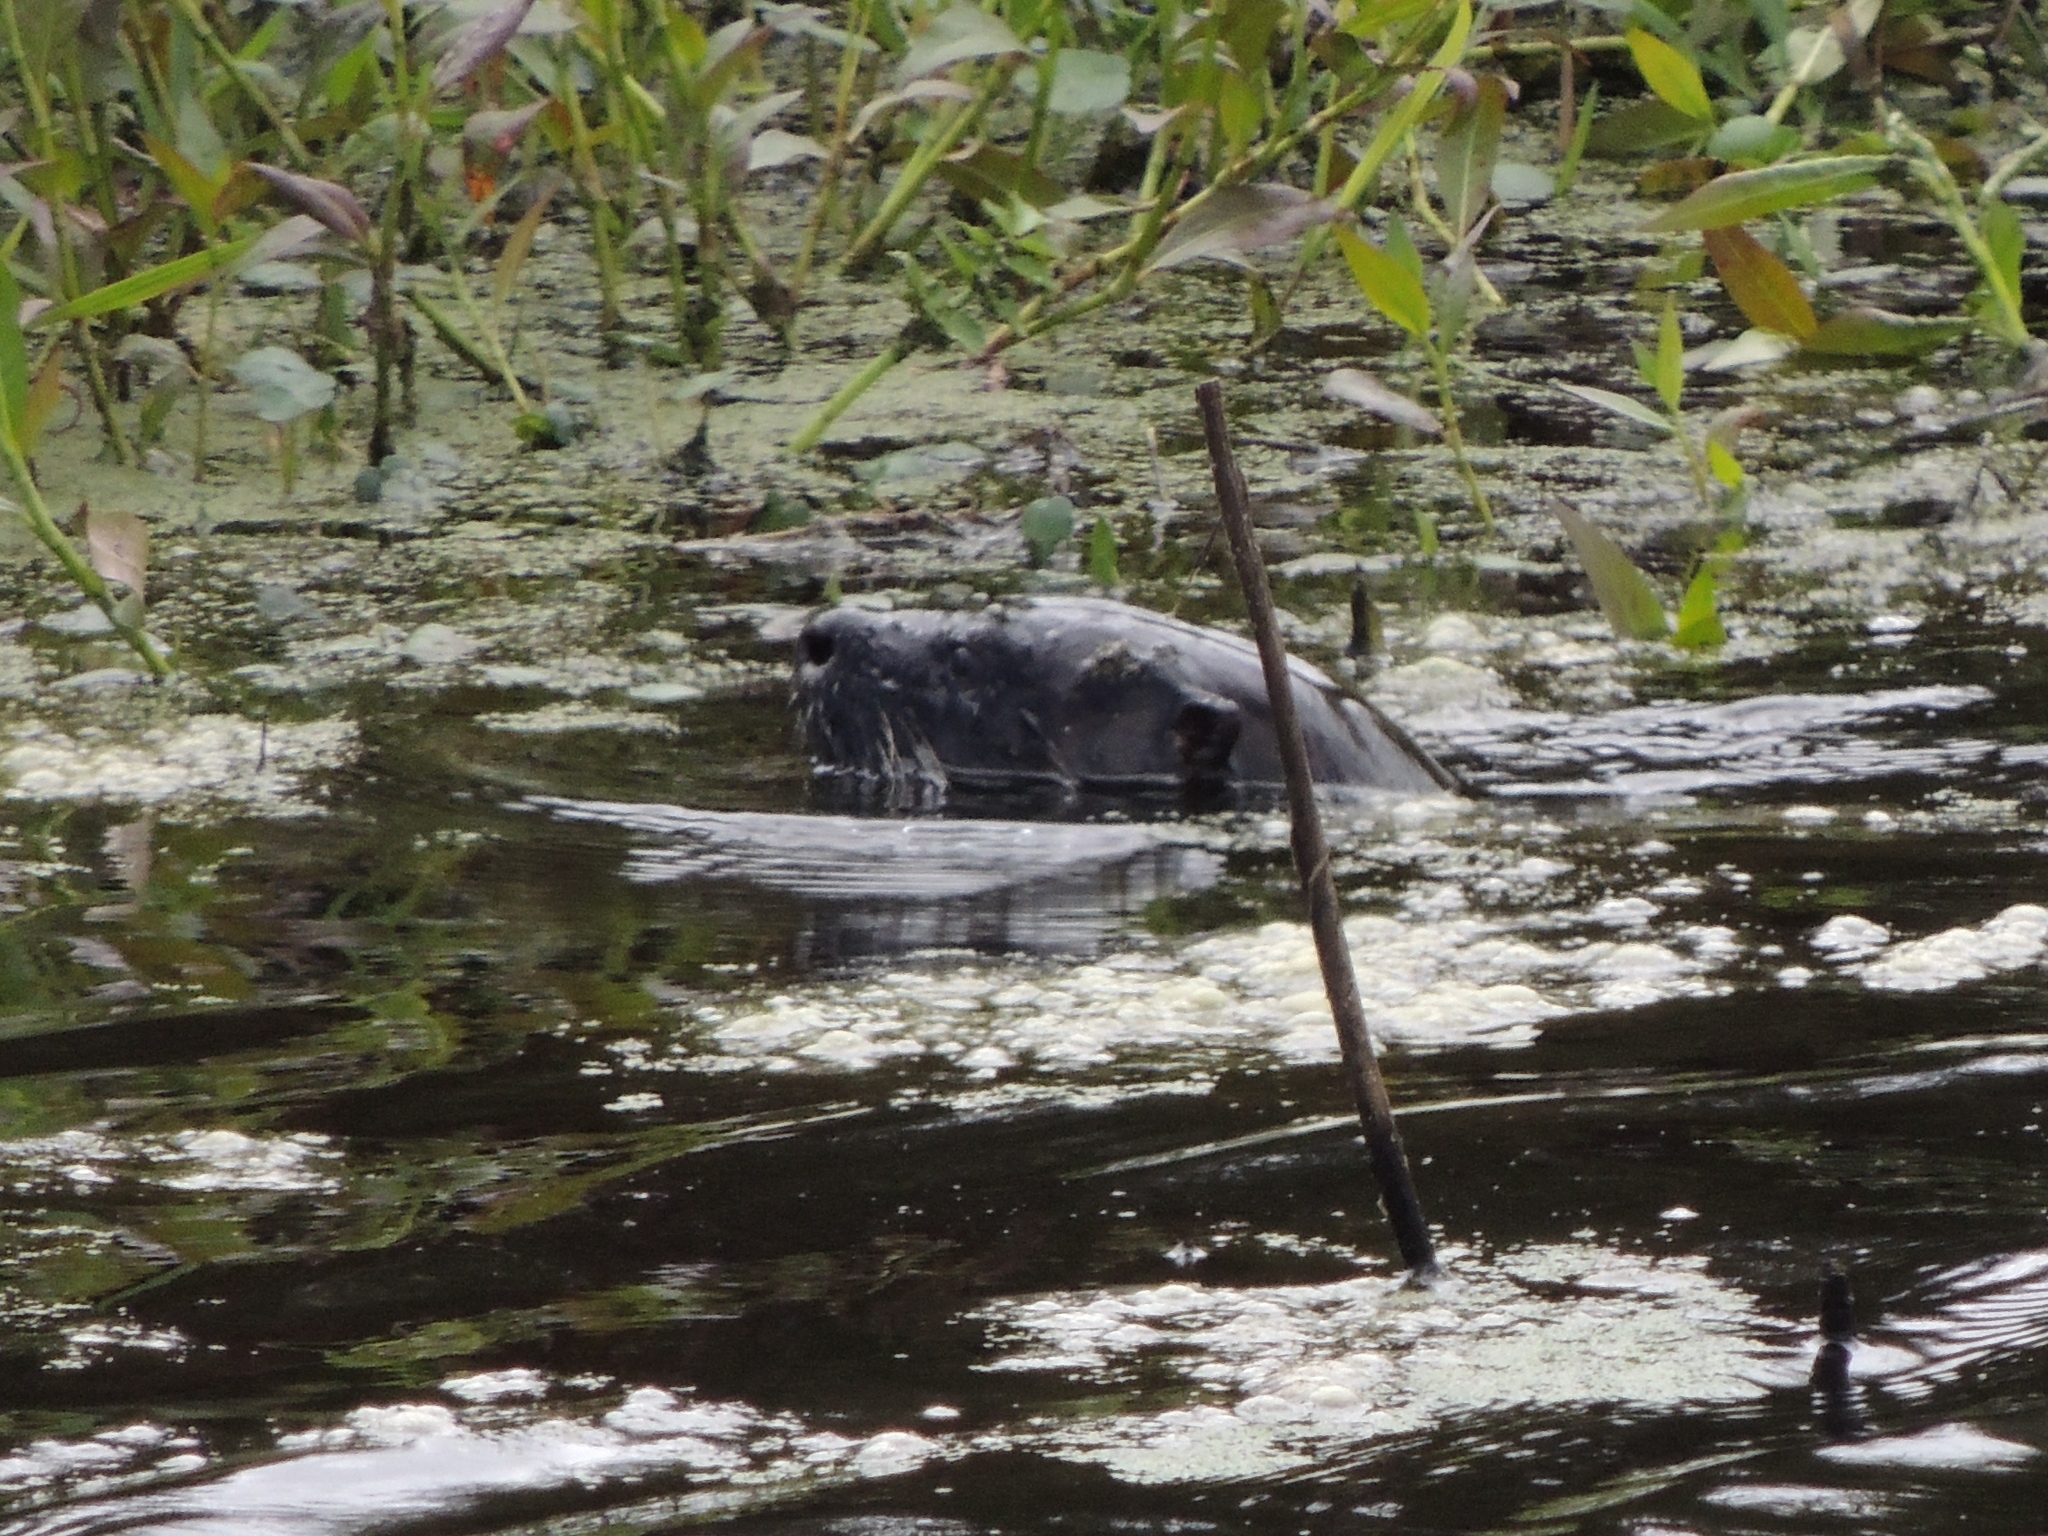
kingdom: Animalia
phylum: Chordata
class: Mammalia
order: Carnivora
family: Mustelidae
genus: Lontra
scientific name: Lontra canadensis
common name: North american river otter
